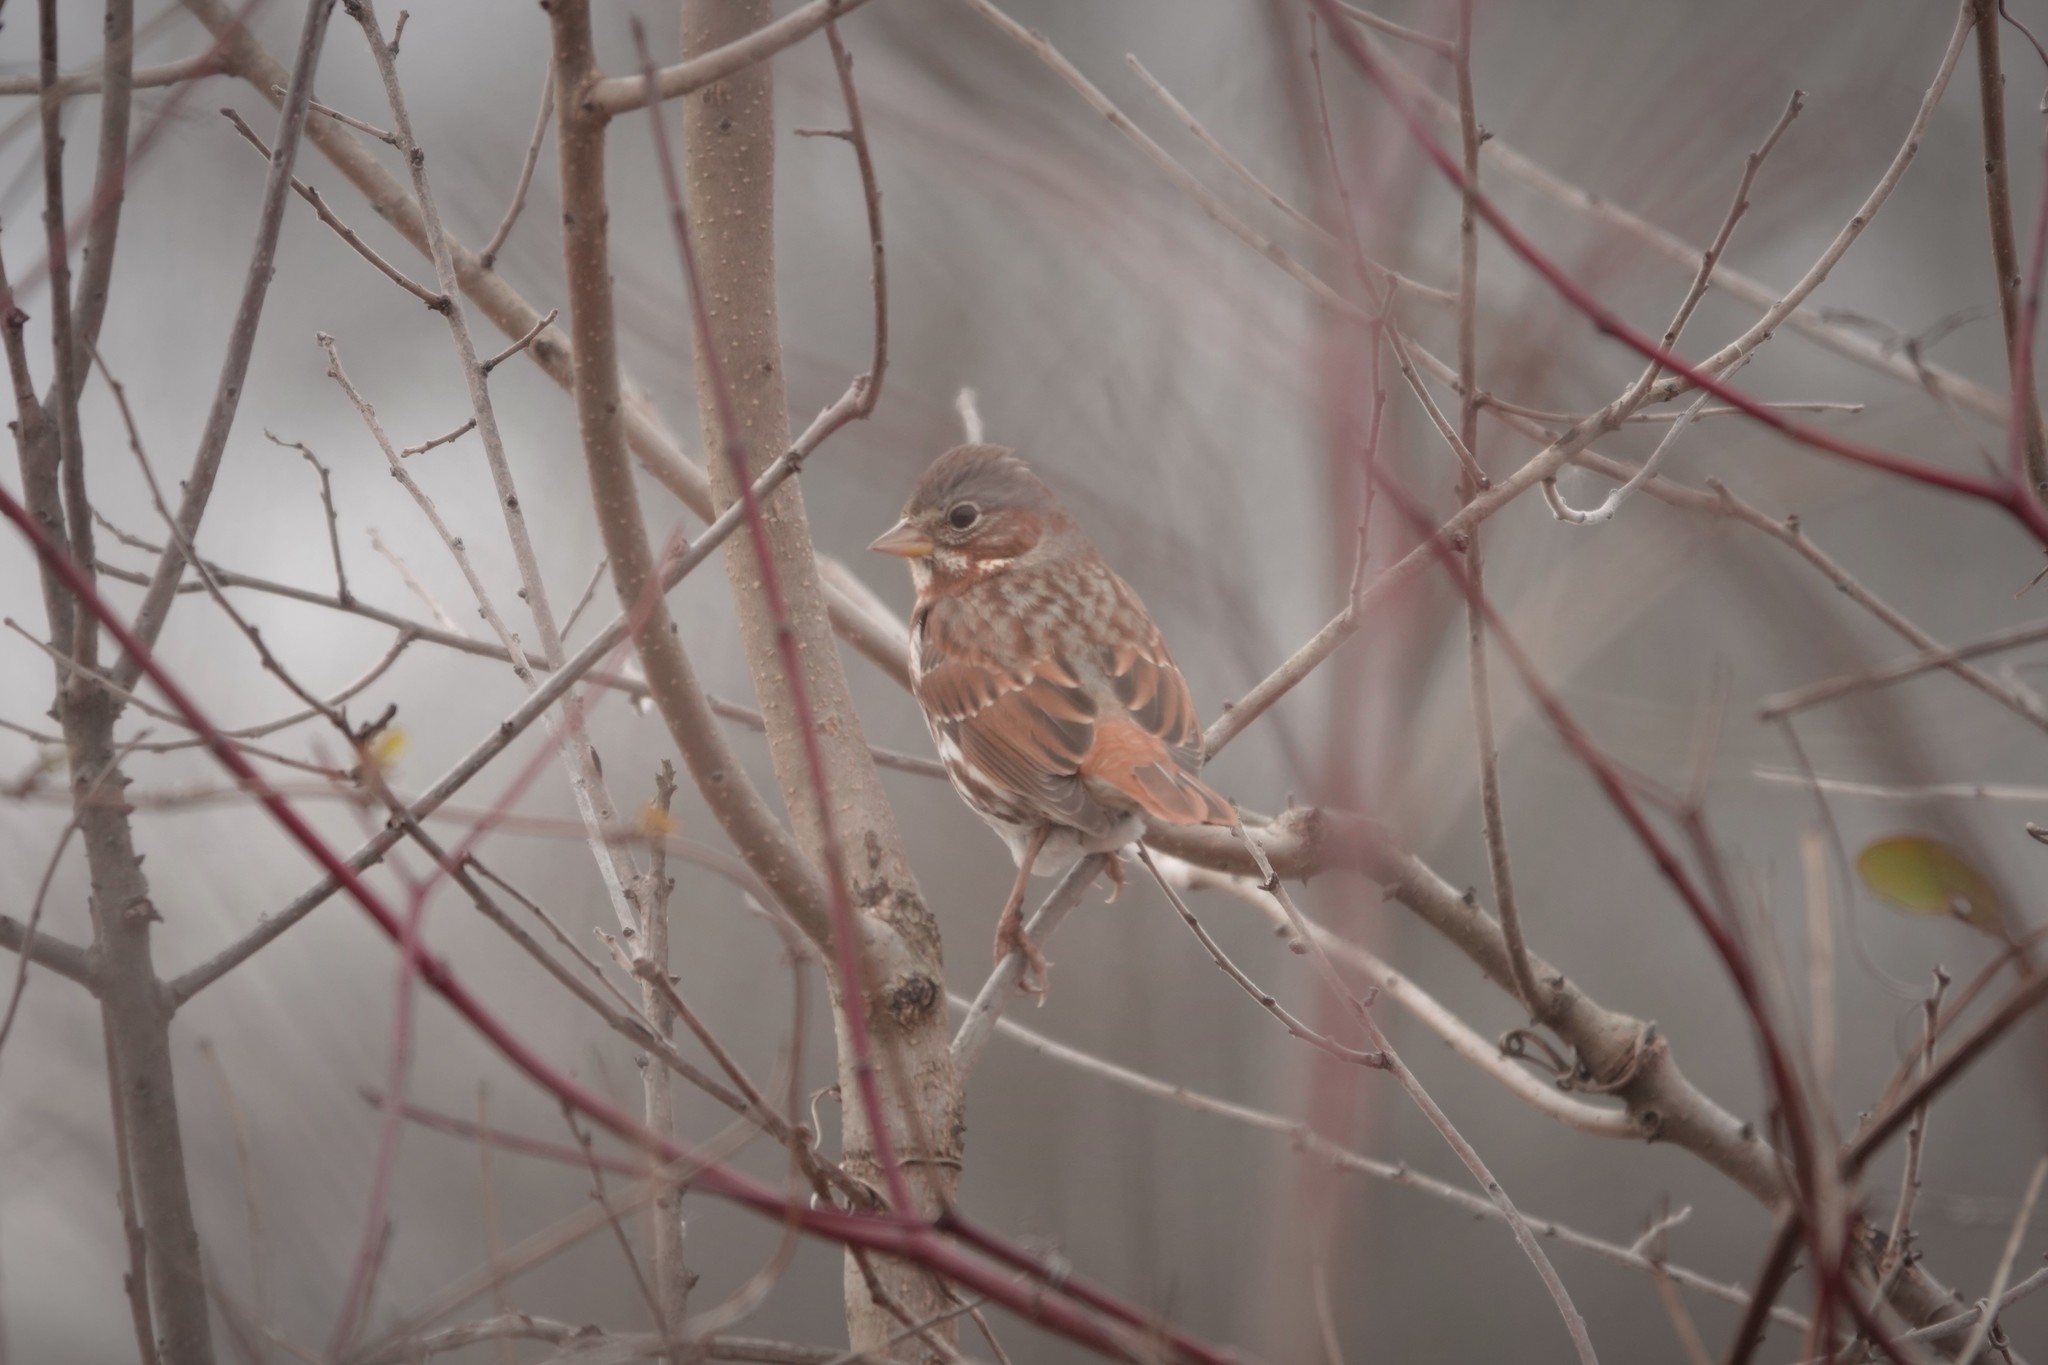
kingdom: Animalia
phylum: Chordata
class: Aves
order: Passeriformes
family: Passerellidae
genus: Passerella
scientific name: Passerella iliaca
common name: Fox sparrow
